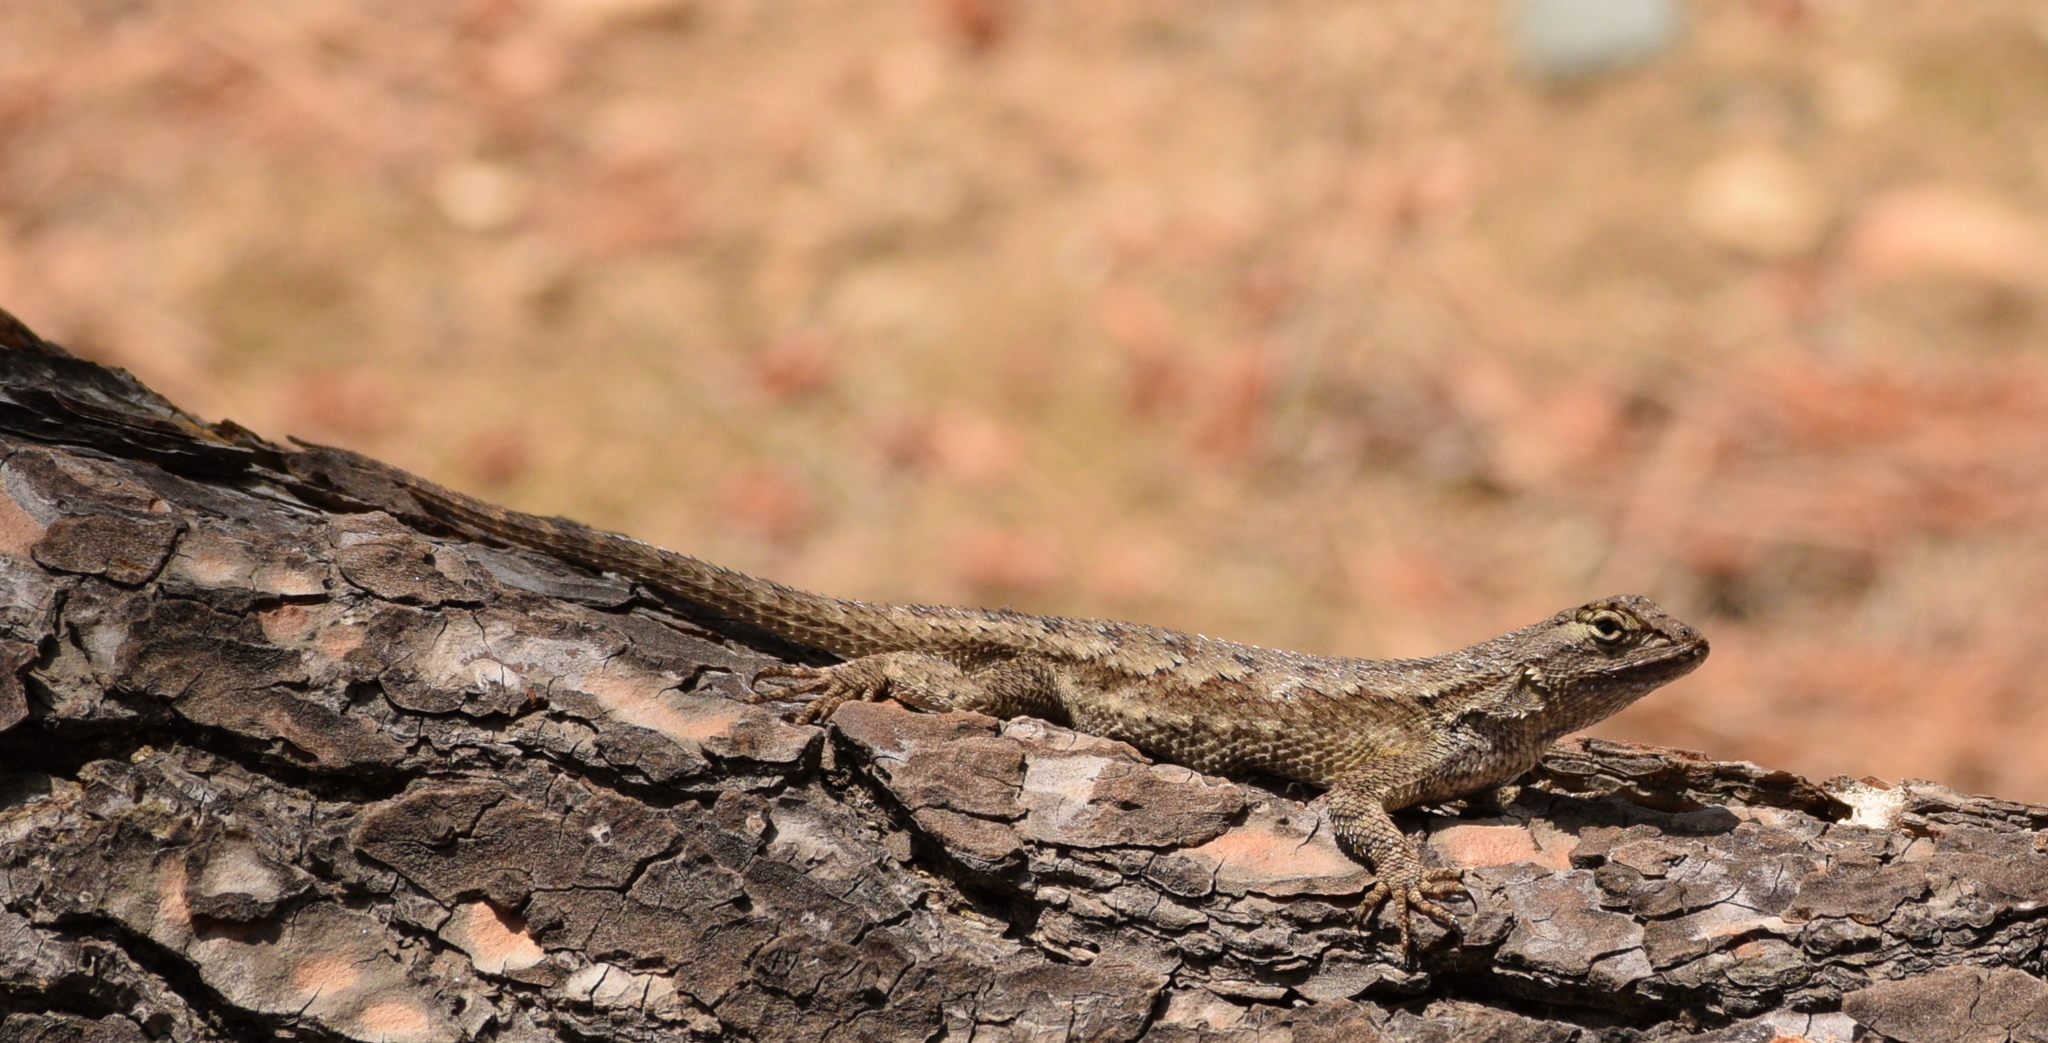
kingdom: Animalia
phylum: Chordata
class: Squamata
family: Phrynosomatidae
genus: Sceloporus
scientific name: Sceloporus occidentalis
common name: Western fence lizard
